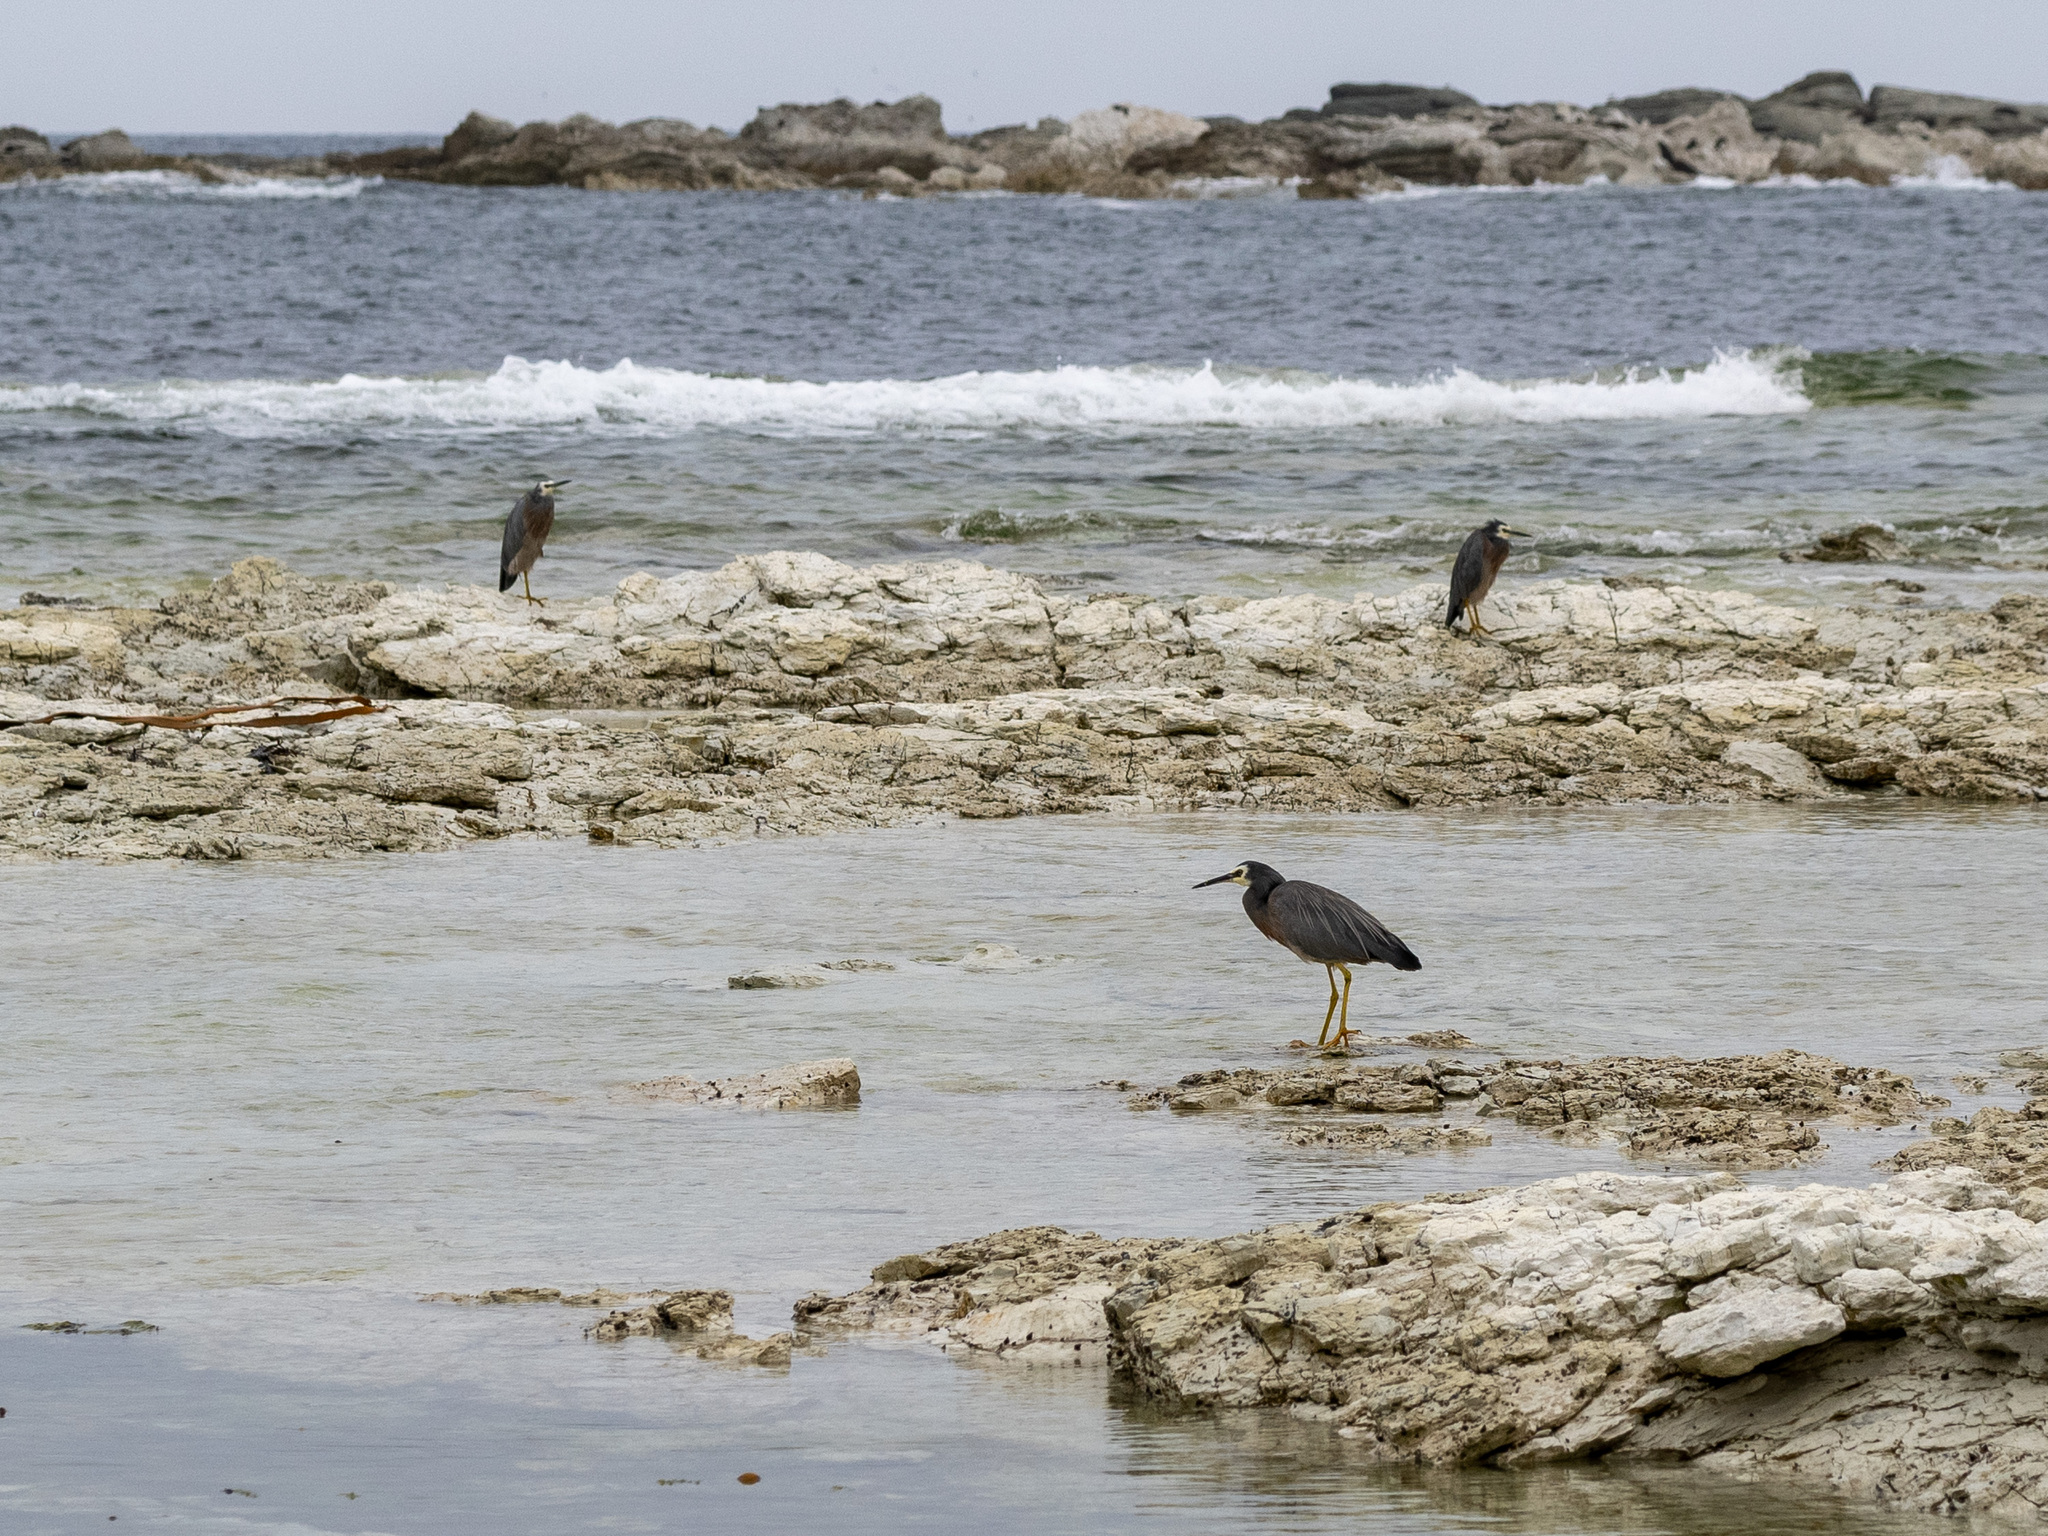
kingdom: Animalia
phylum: Chordata
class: Aves
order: Pelecaniformes
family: Ardeidae
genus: Egretta
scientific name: Egretta novaehollandiae
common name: White-faced heron
